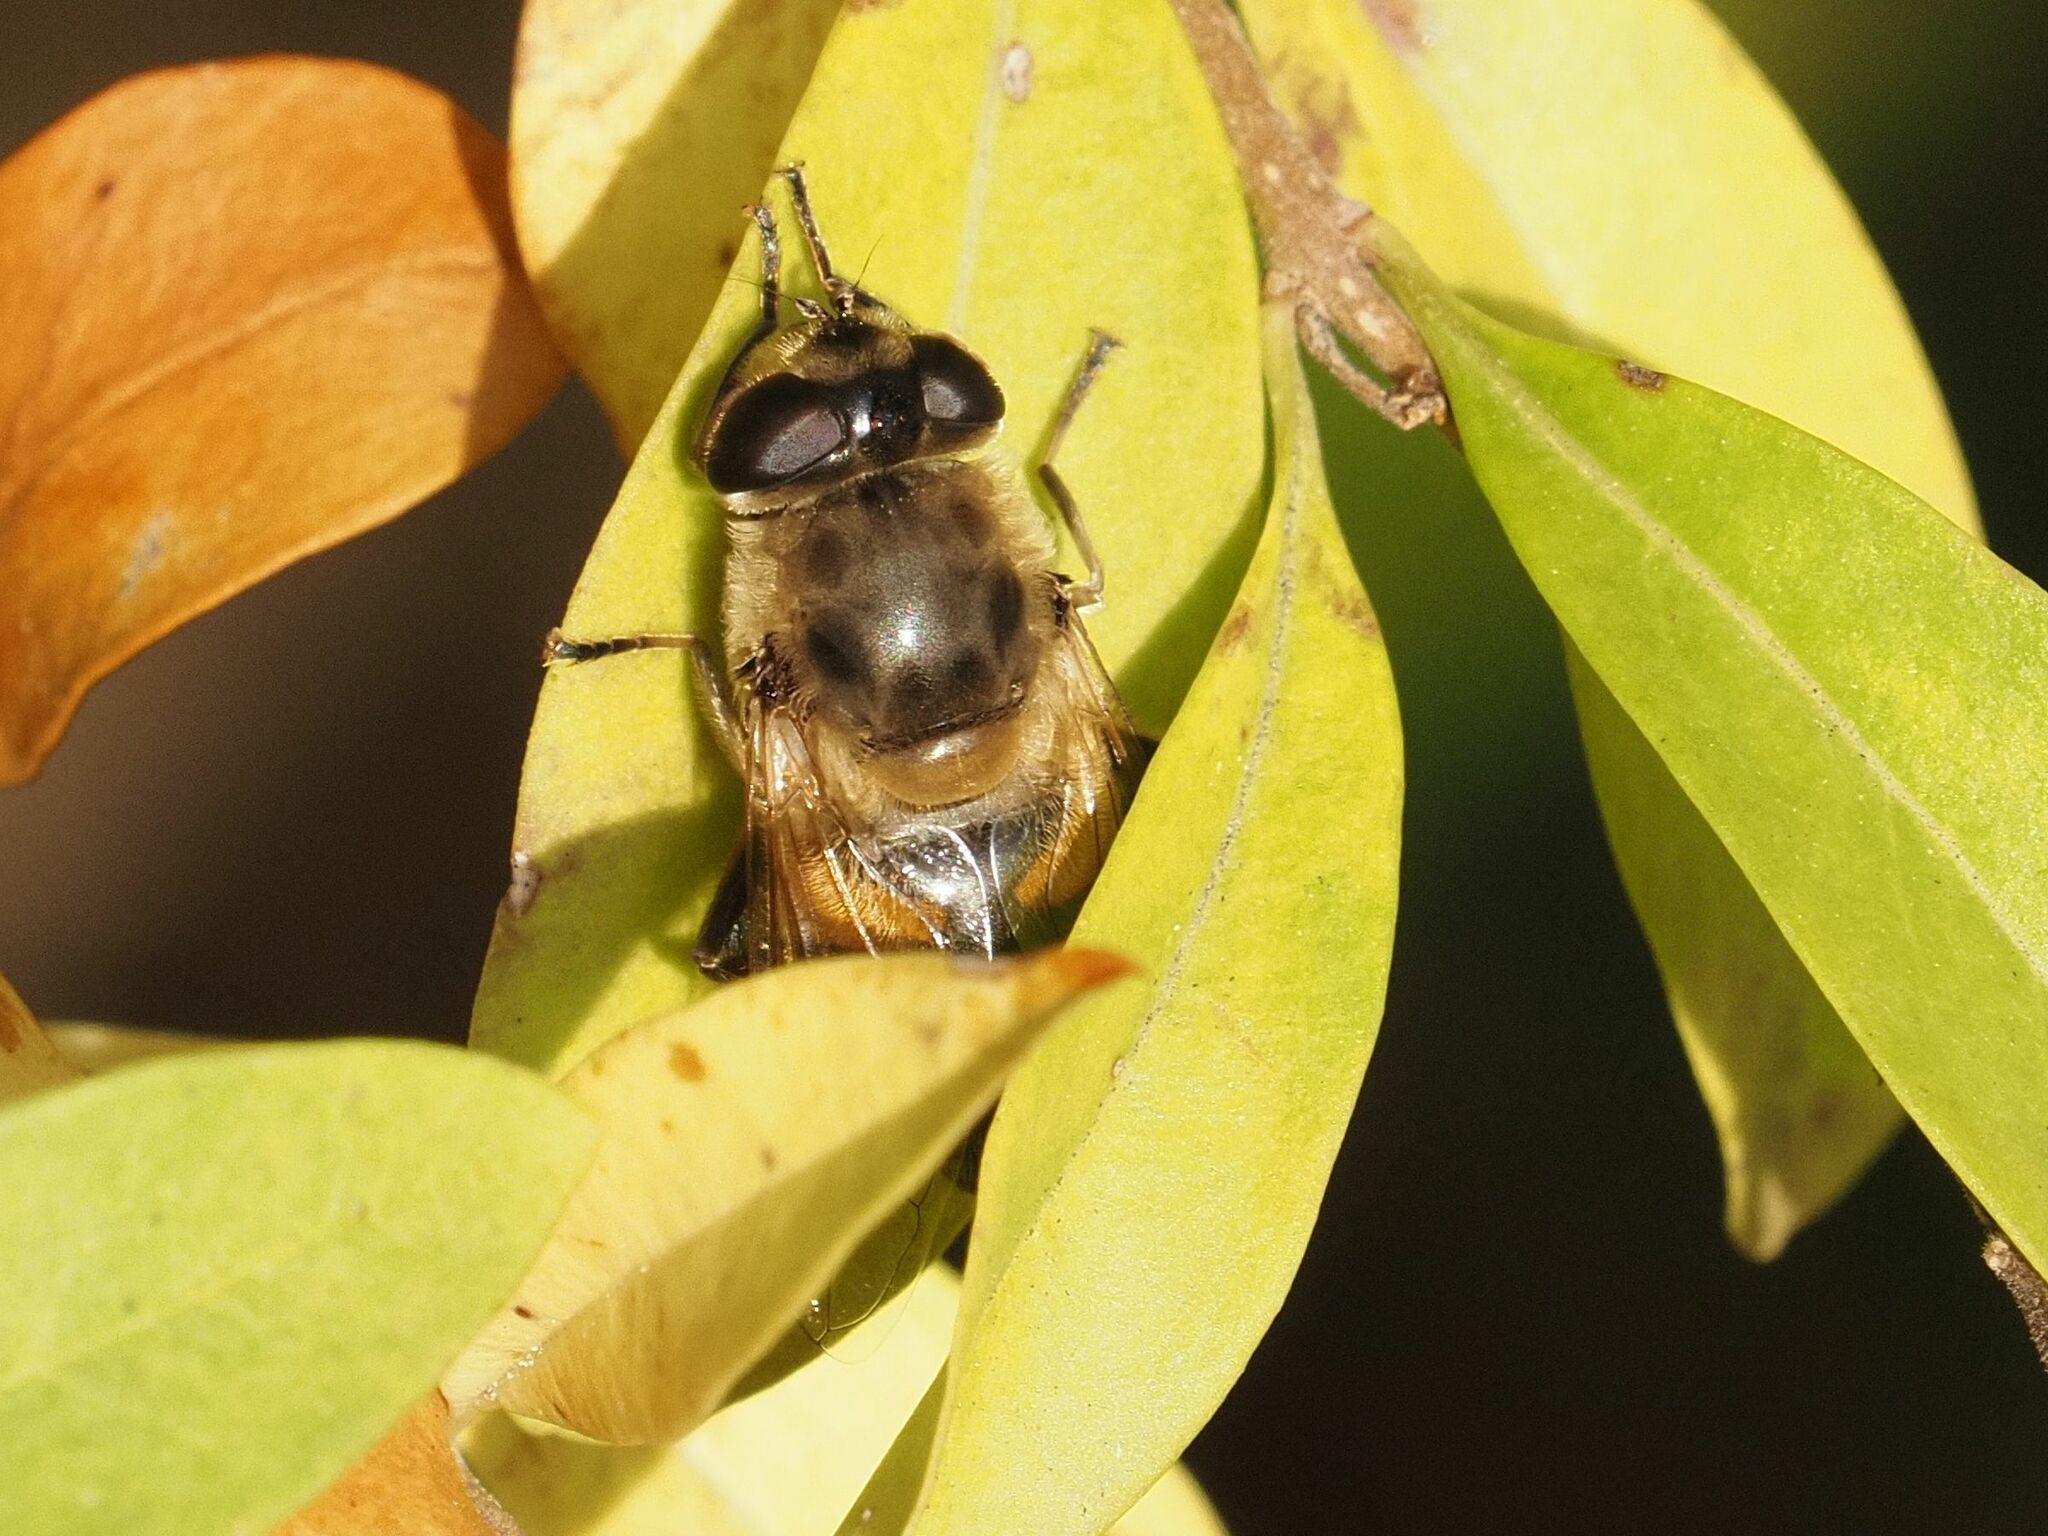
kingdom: Animalia
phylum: Arthropoda
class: Insecta
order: Diptera
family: Syrphidae
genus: Eristalis
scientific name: Eristalis tenax
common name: Drone fly
